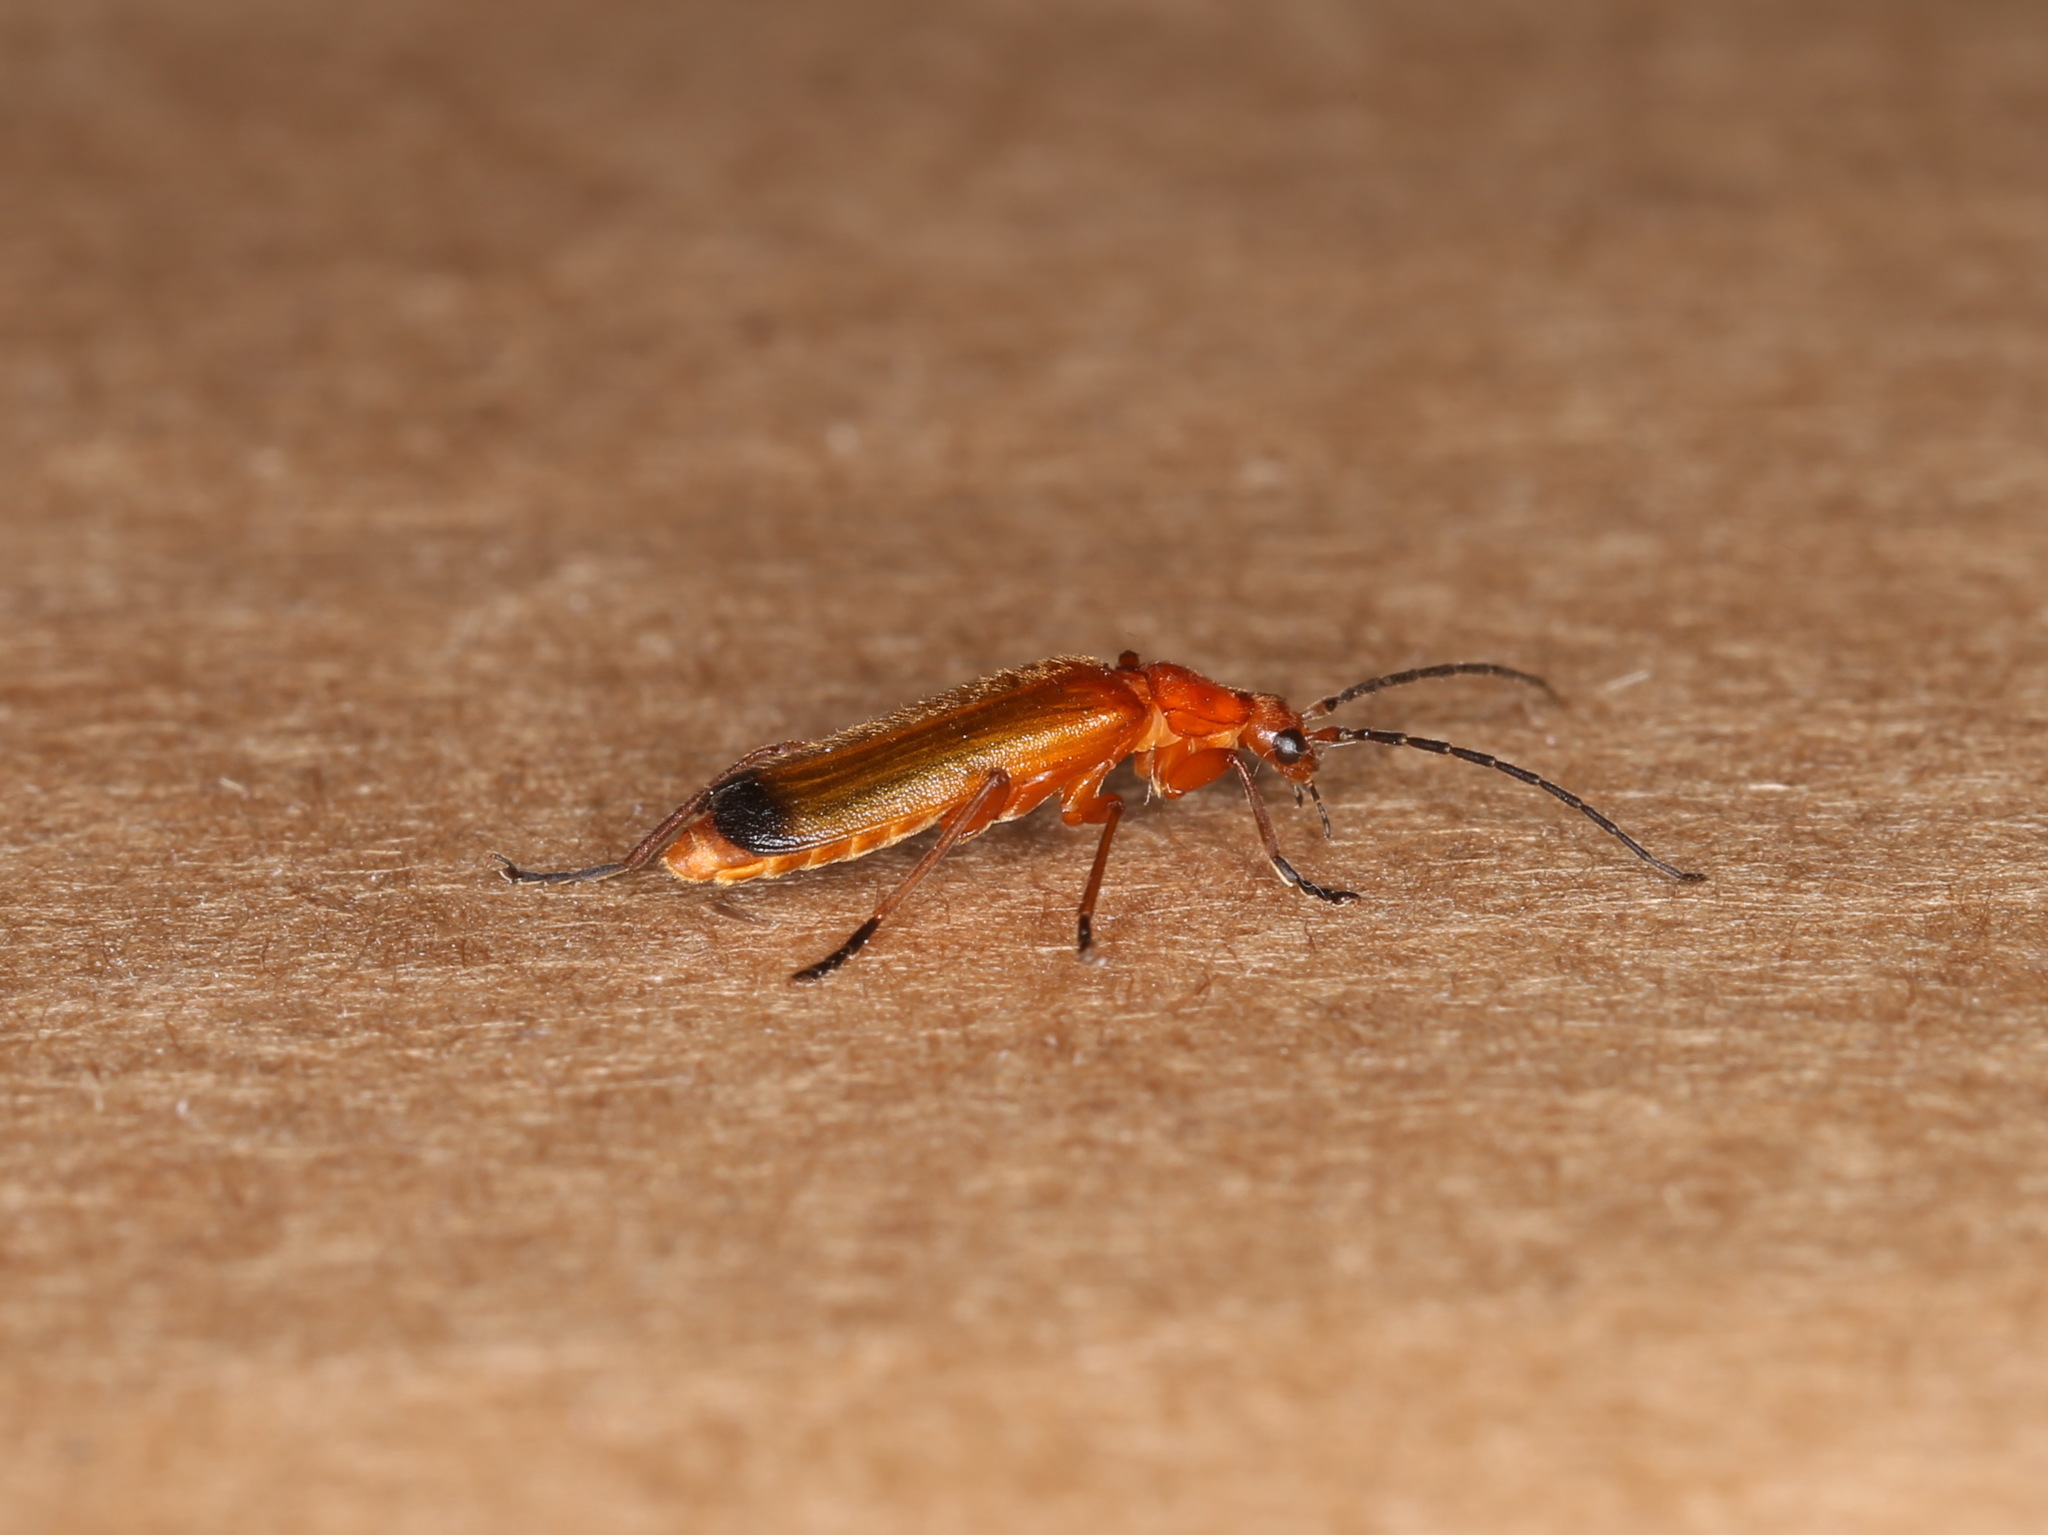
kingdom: Animalia
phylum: Arthropoda
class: Insecta
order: Coleoptera
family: Cantharidae
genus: Rhagonycha
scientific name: Rhagonycha fulva
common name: Common red soldier beetle
